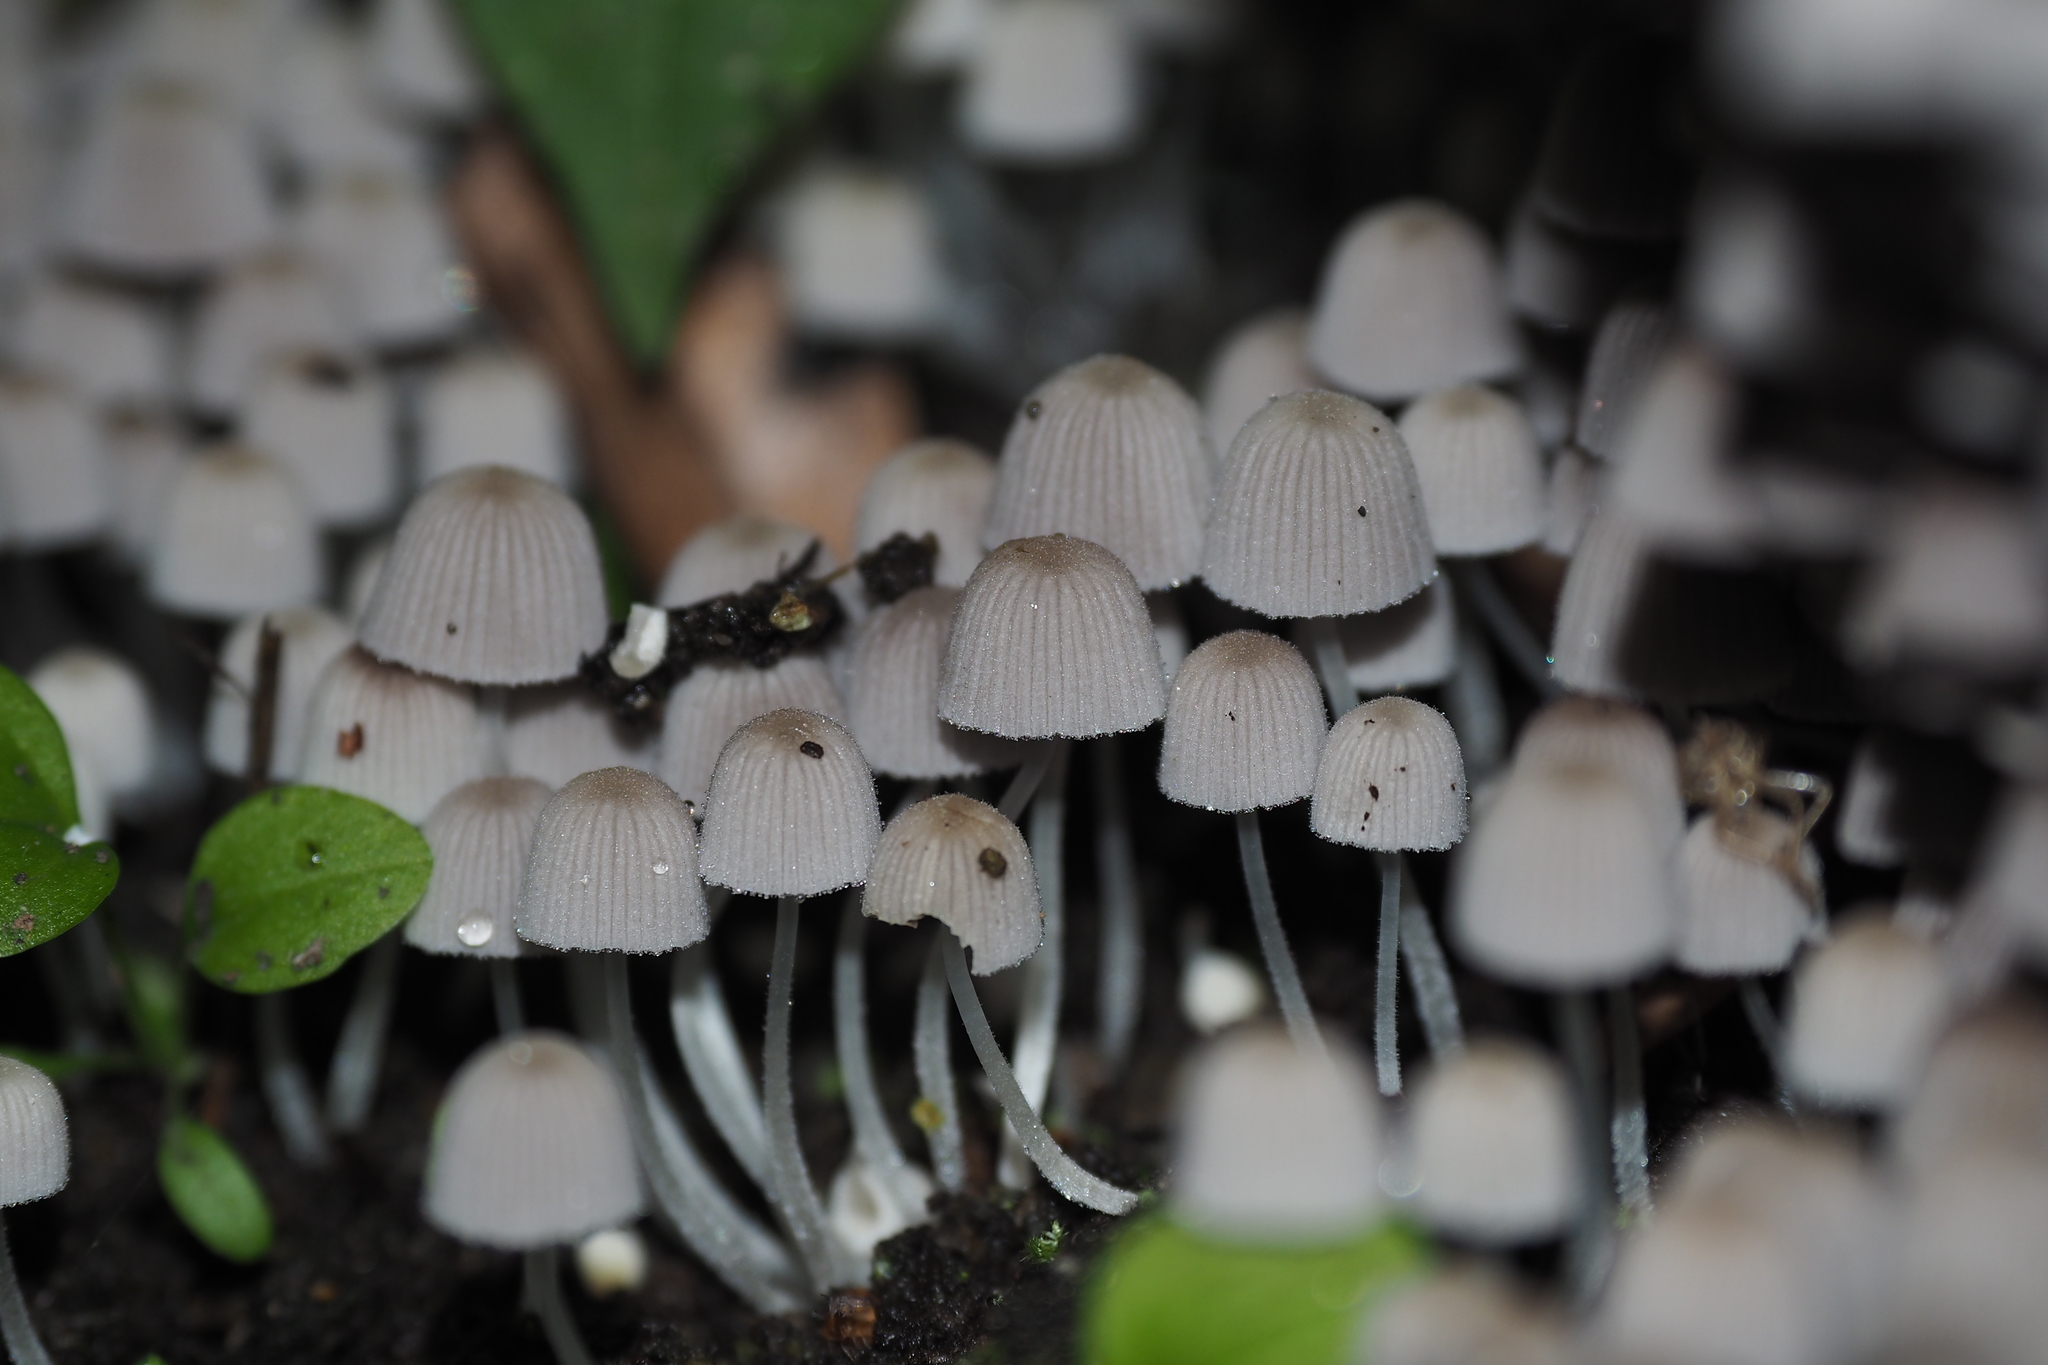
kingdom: Fungi
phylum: Basidiomycota
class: Agaricomycetes
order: Agaricales
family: Psathyrellaceae
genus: Coprinellus
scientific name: Coprinellus disseminatus
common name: Fairies' bonnets
